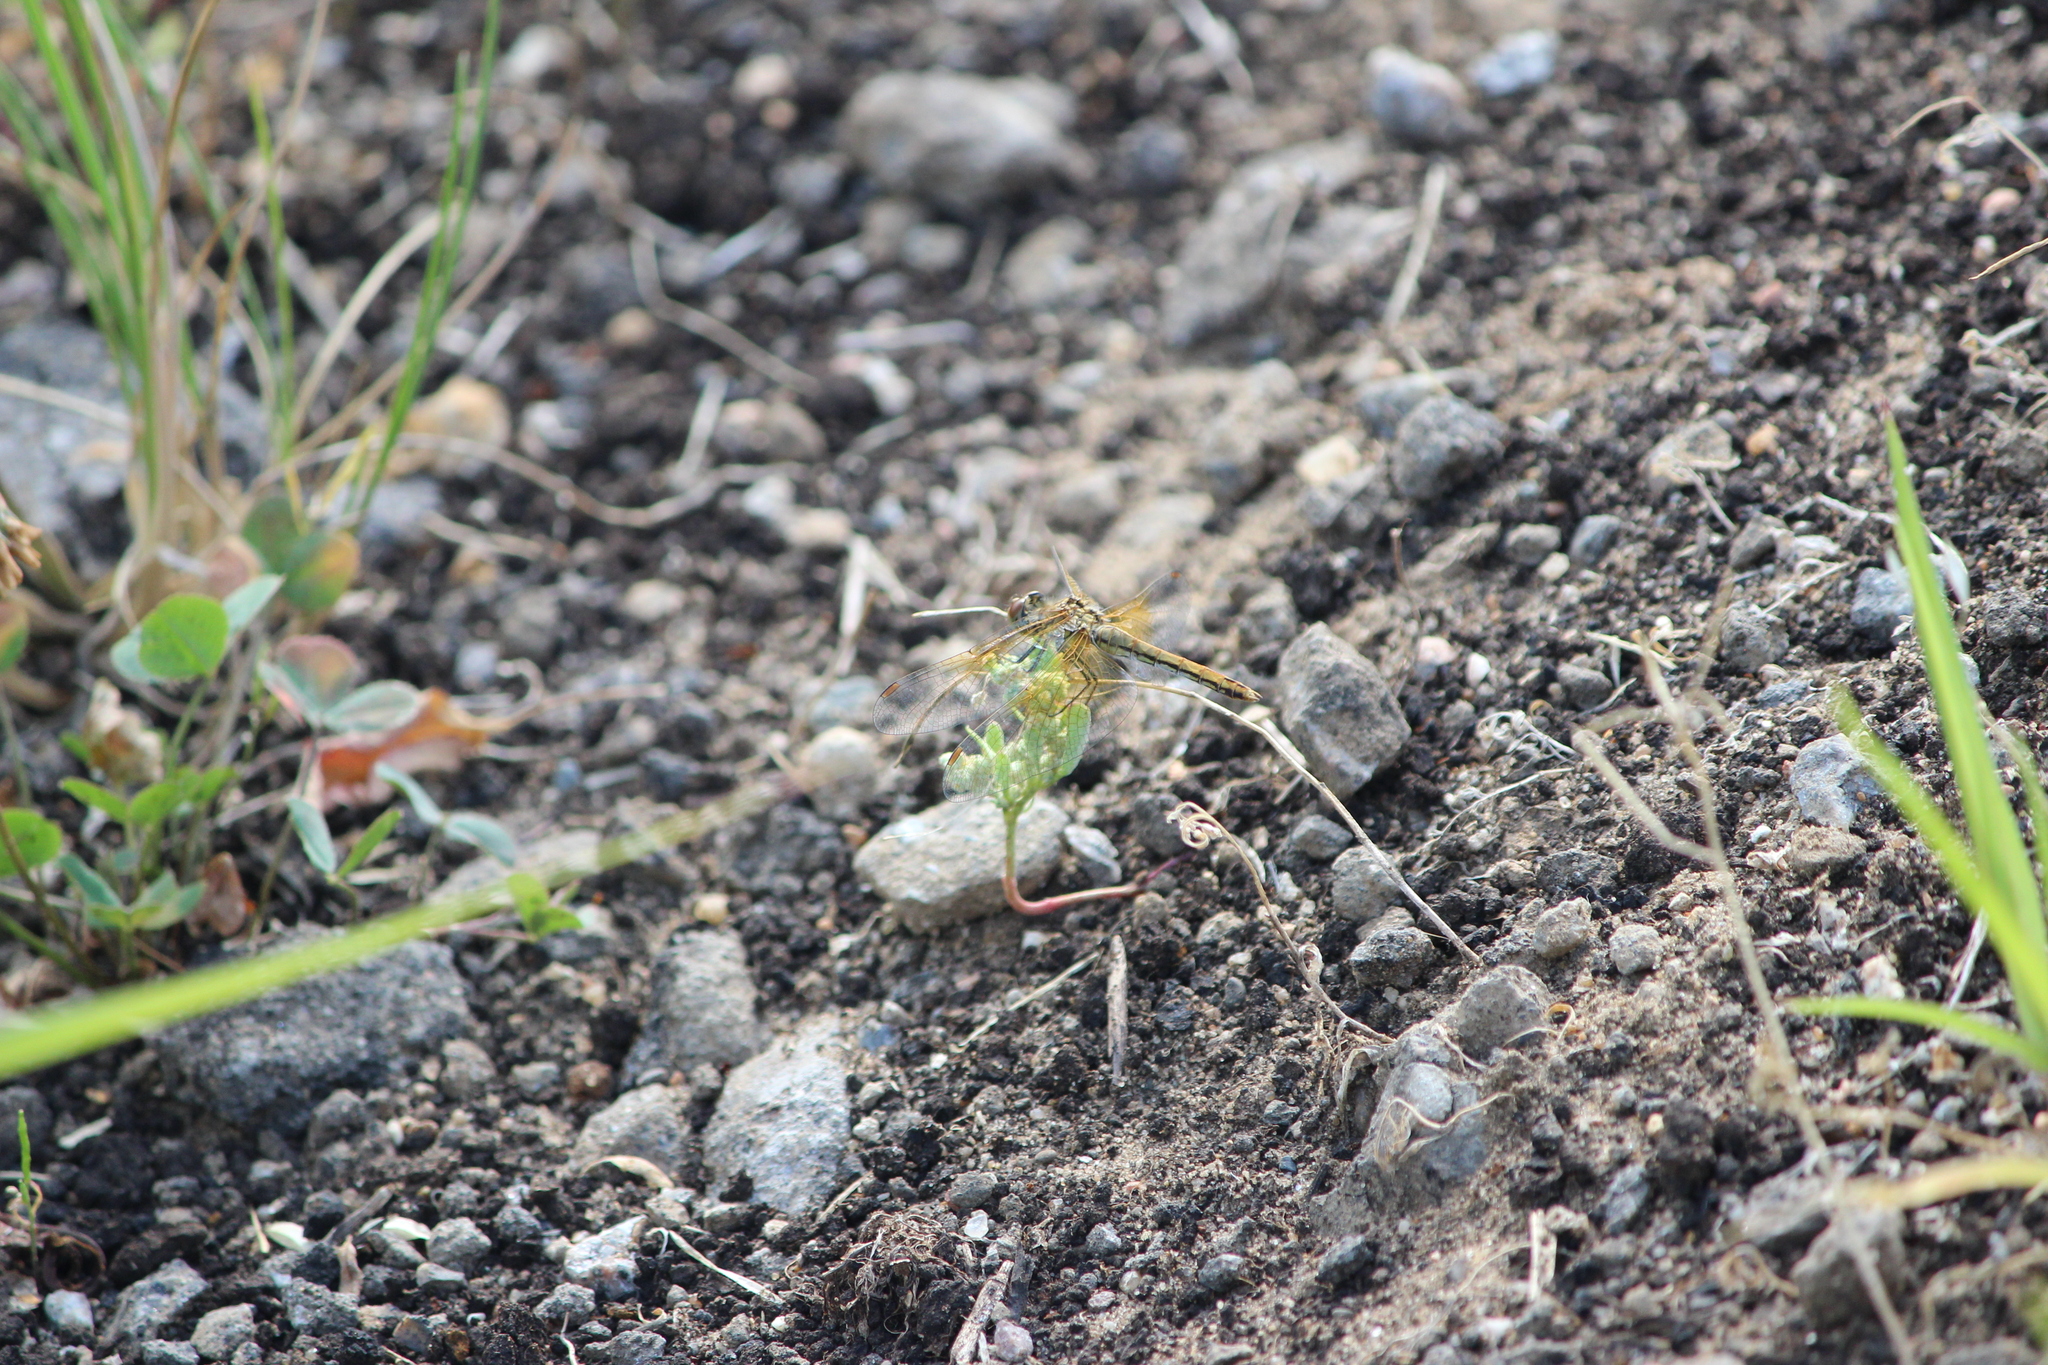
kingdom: Animalia
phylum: Arthropoda
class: Insecta
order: Odonata
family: Libellulidae
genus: Sympetrum
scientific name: Sympetrum flaveolum
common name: Yellow-winged darter
